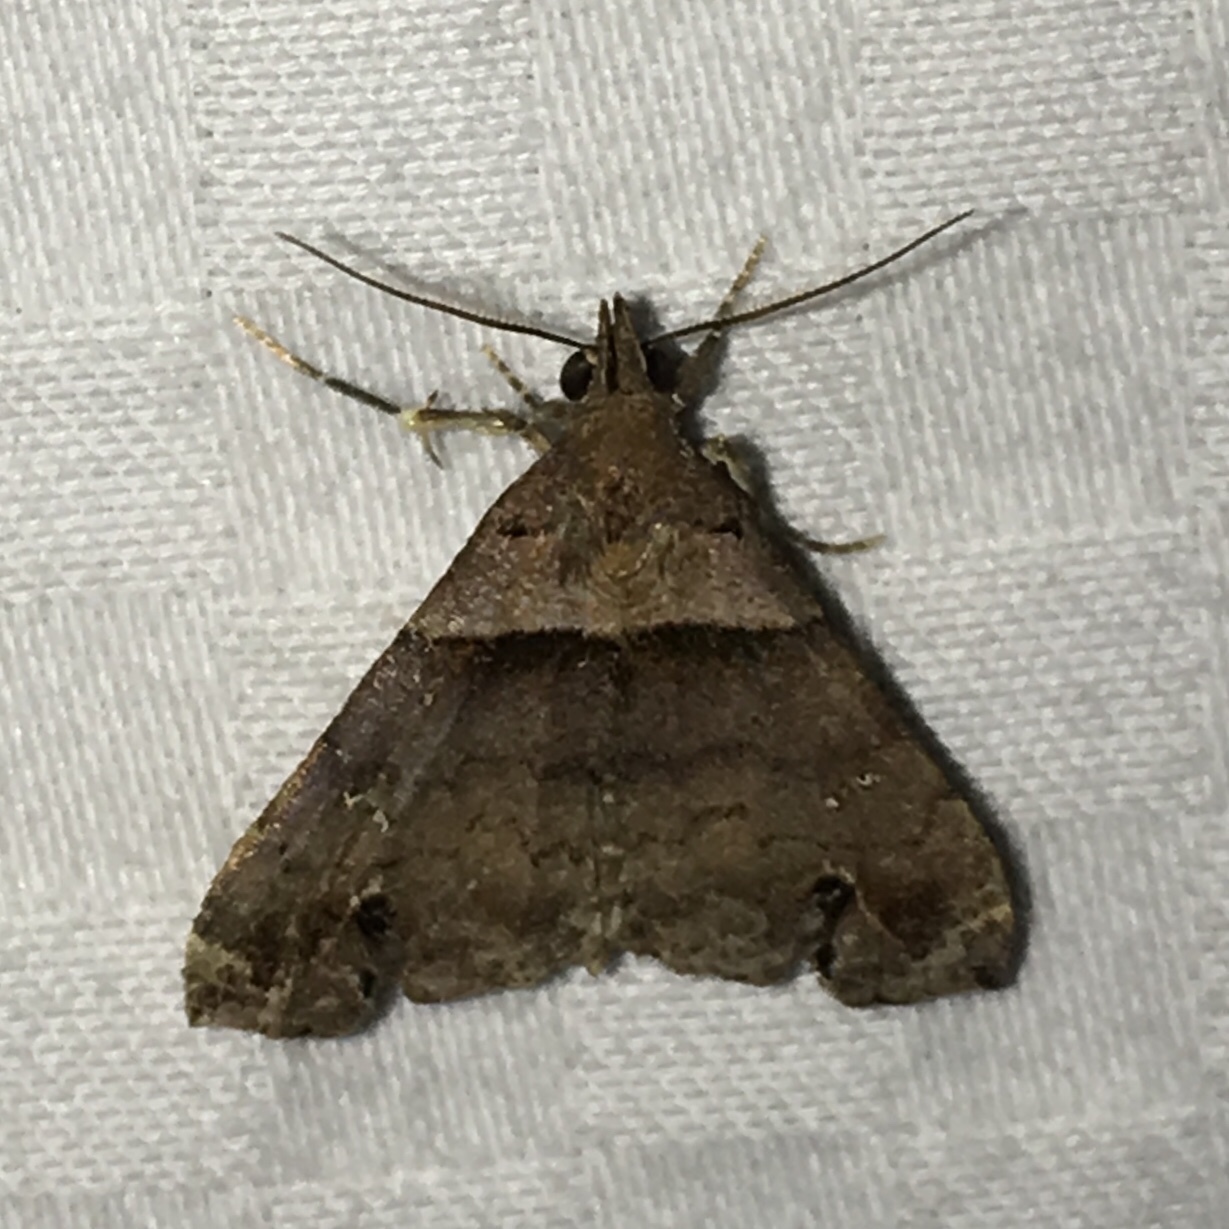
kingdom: Animalia
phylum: Arthropoda
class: Insecta
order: Lepidoptera
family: Erebidae
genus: Lascoria
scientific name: Lascoria ambigualis
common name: Ambiguous moth
